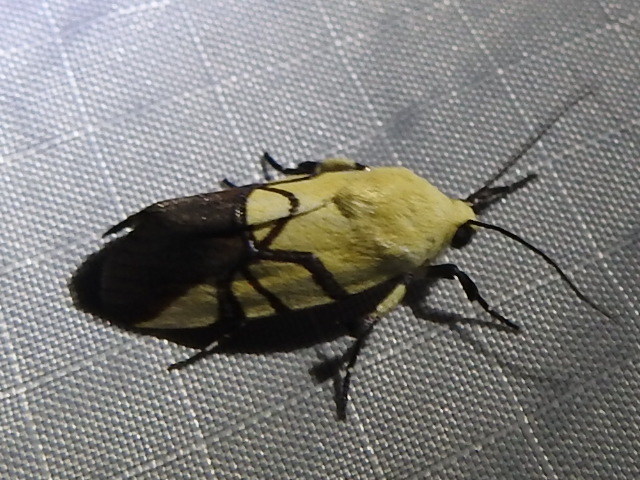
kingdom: Animalia
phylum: Arthropoda
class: Insecta
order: Lepidoptera
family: Noctuidae
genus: Eusceptis
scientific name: Eusceptis flavifrimbriata
